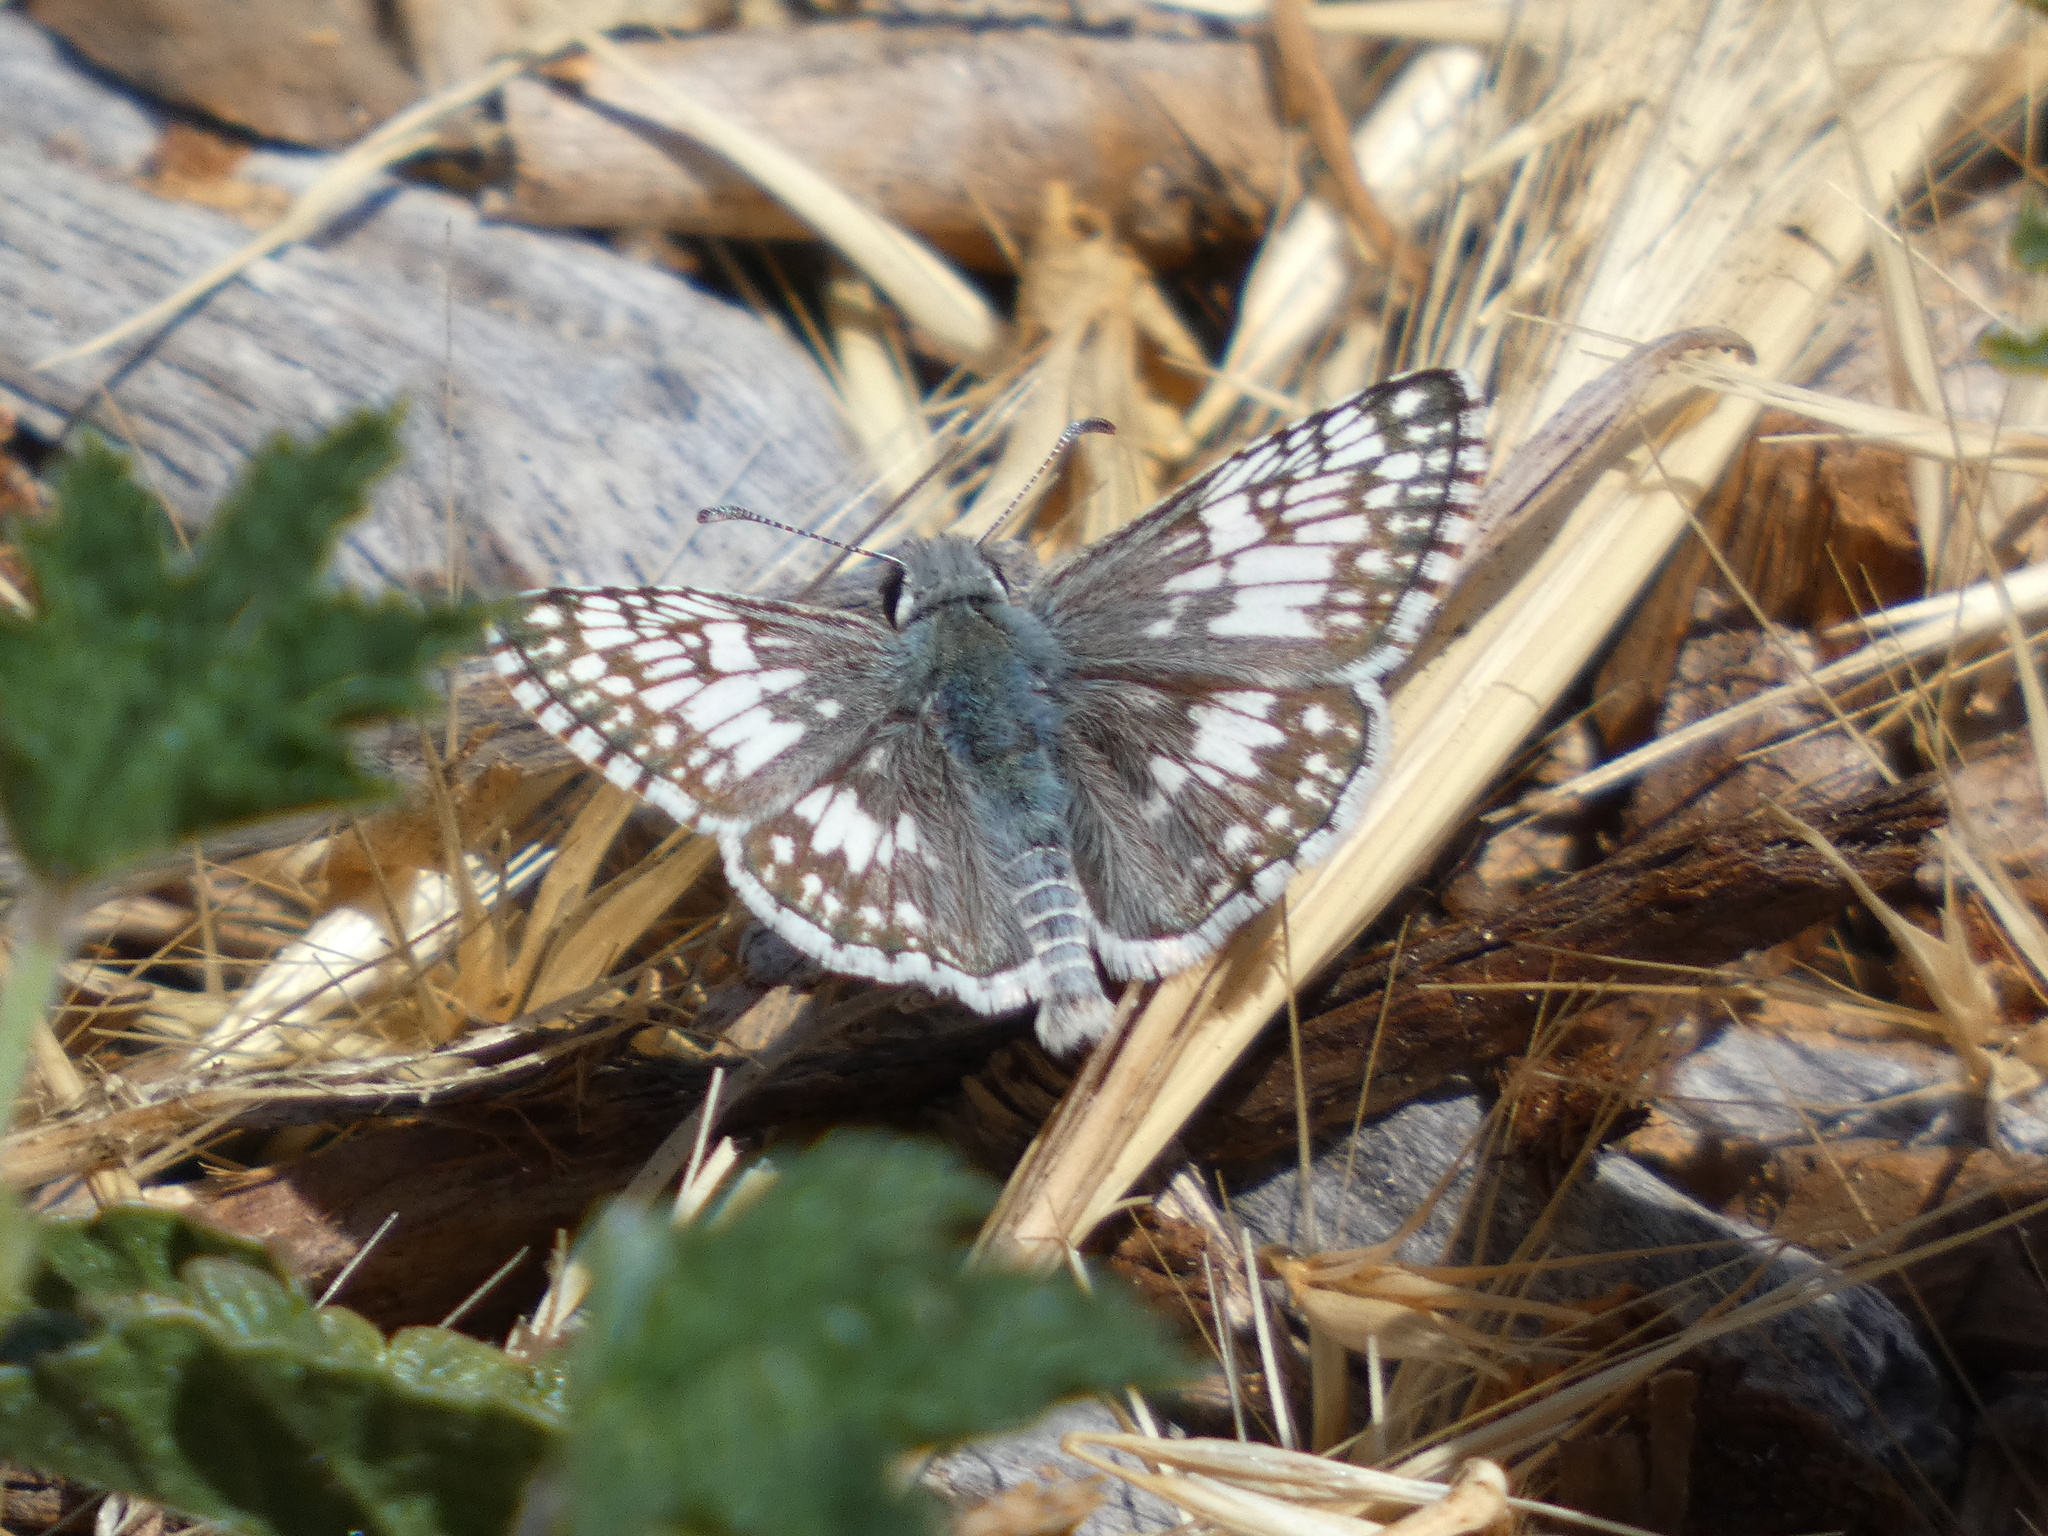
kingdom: Animalia
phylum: Arthropoda
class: Insecta
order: Lepidoptera
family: Hesperiidae
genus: Burnsius
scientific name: Burnsius communis
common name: Common checkered-skipper
